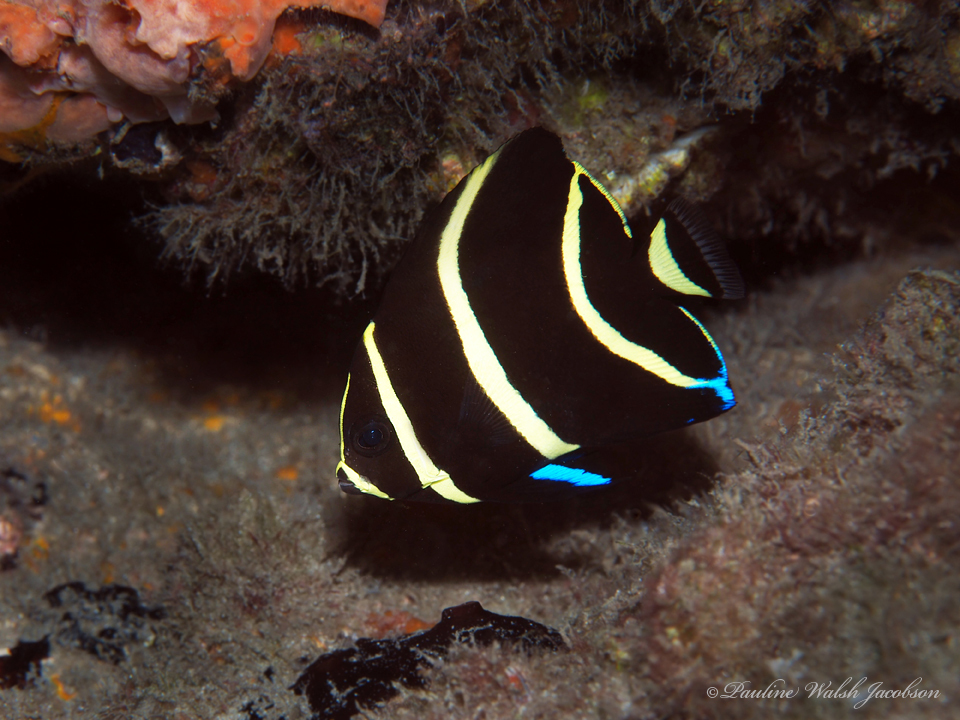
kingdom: Animalia
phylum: Chordata
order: Perciformes
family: Pomacanthidae
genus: Pomacanthus
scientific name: Pomacanthus arcuatus
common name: Gray angelfish
